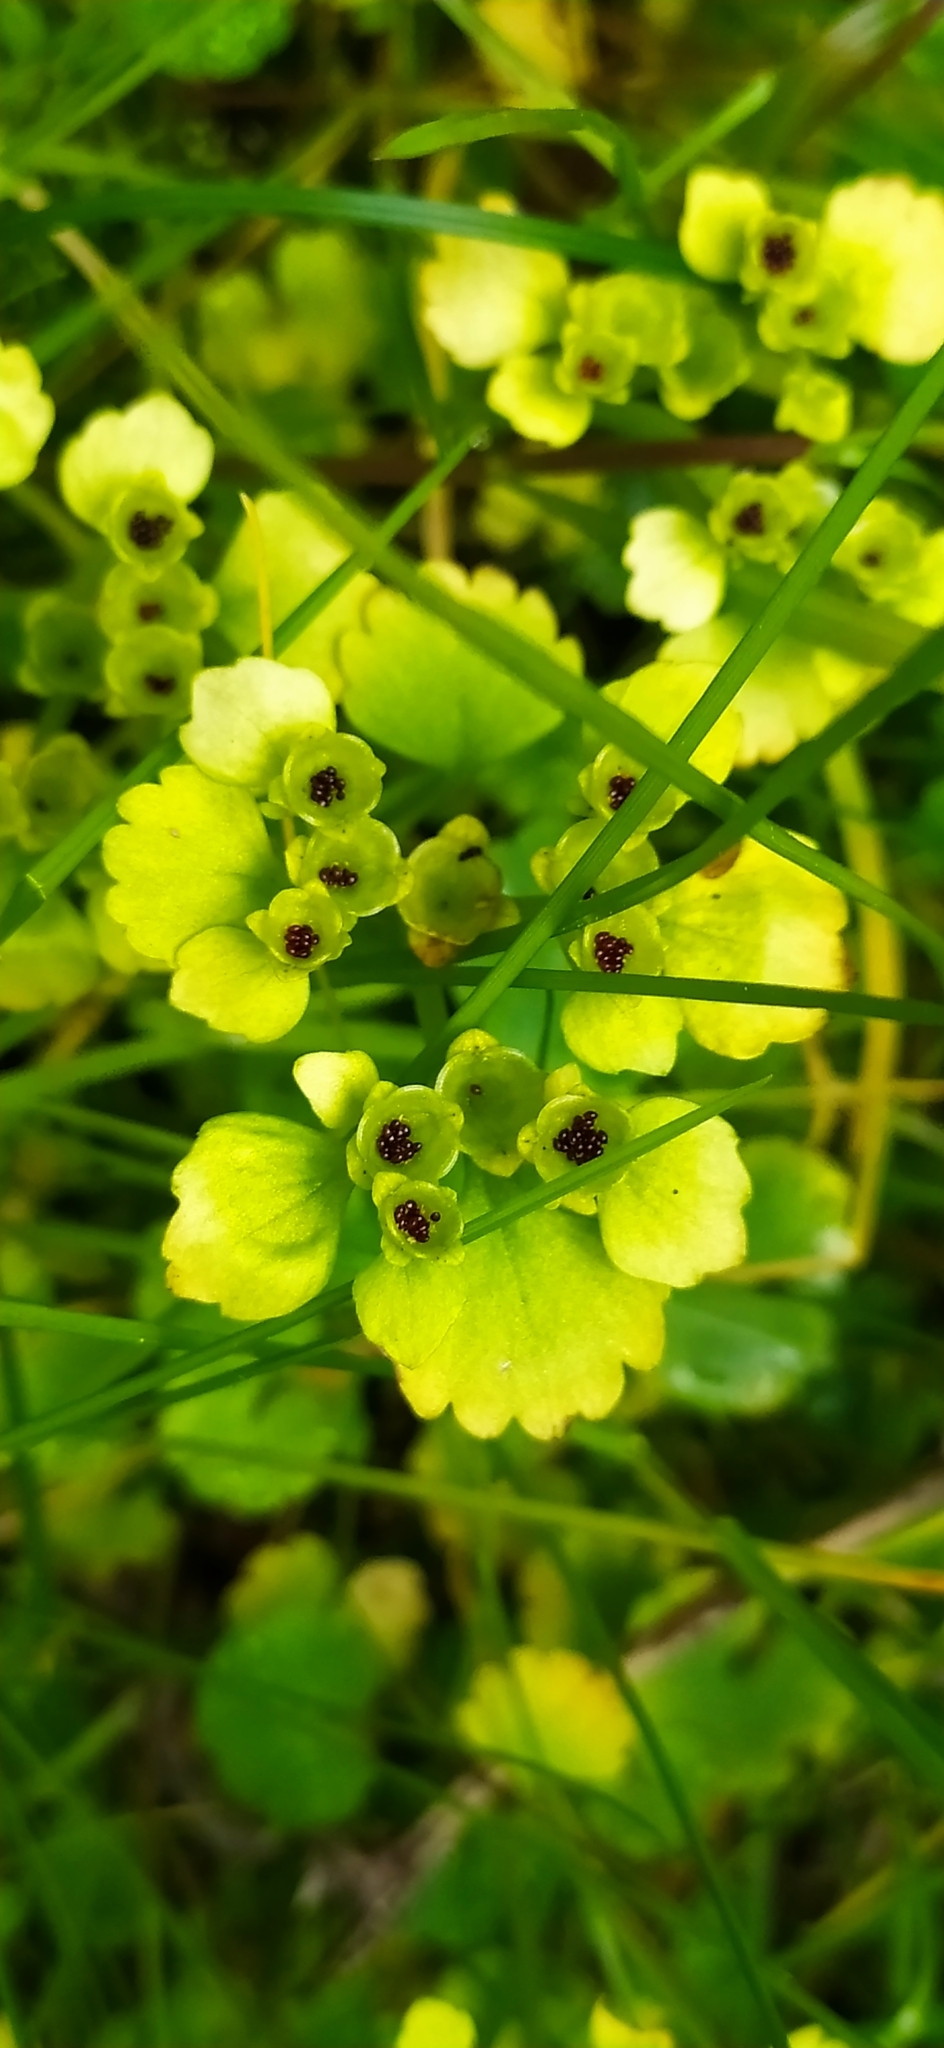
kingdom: Plantae
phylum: Tracheophyta
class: Magnoliopsida
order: Saxifragales
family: Saxifragaceae
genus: Chrysosplenium
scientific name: Chrysosplenium alternifolium
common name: Alternate-leaved golden-saxifrage
